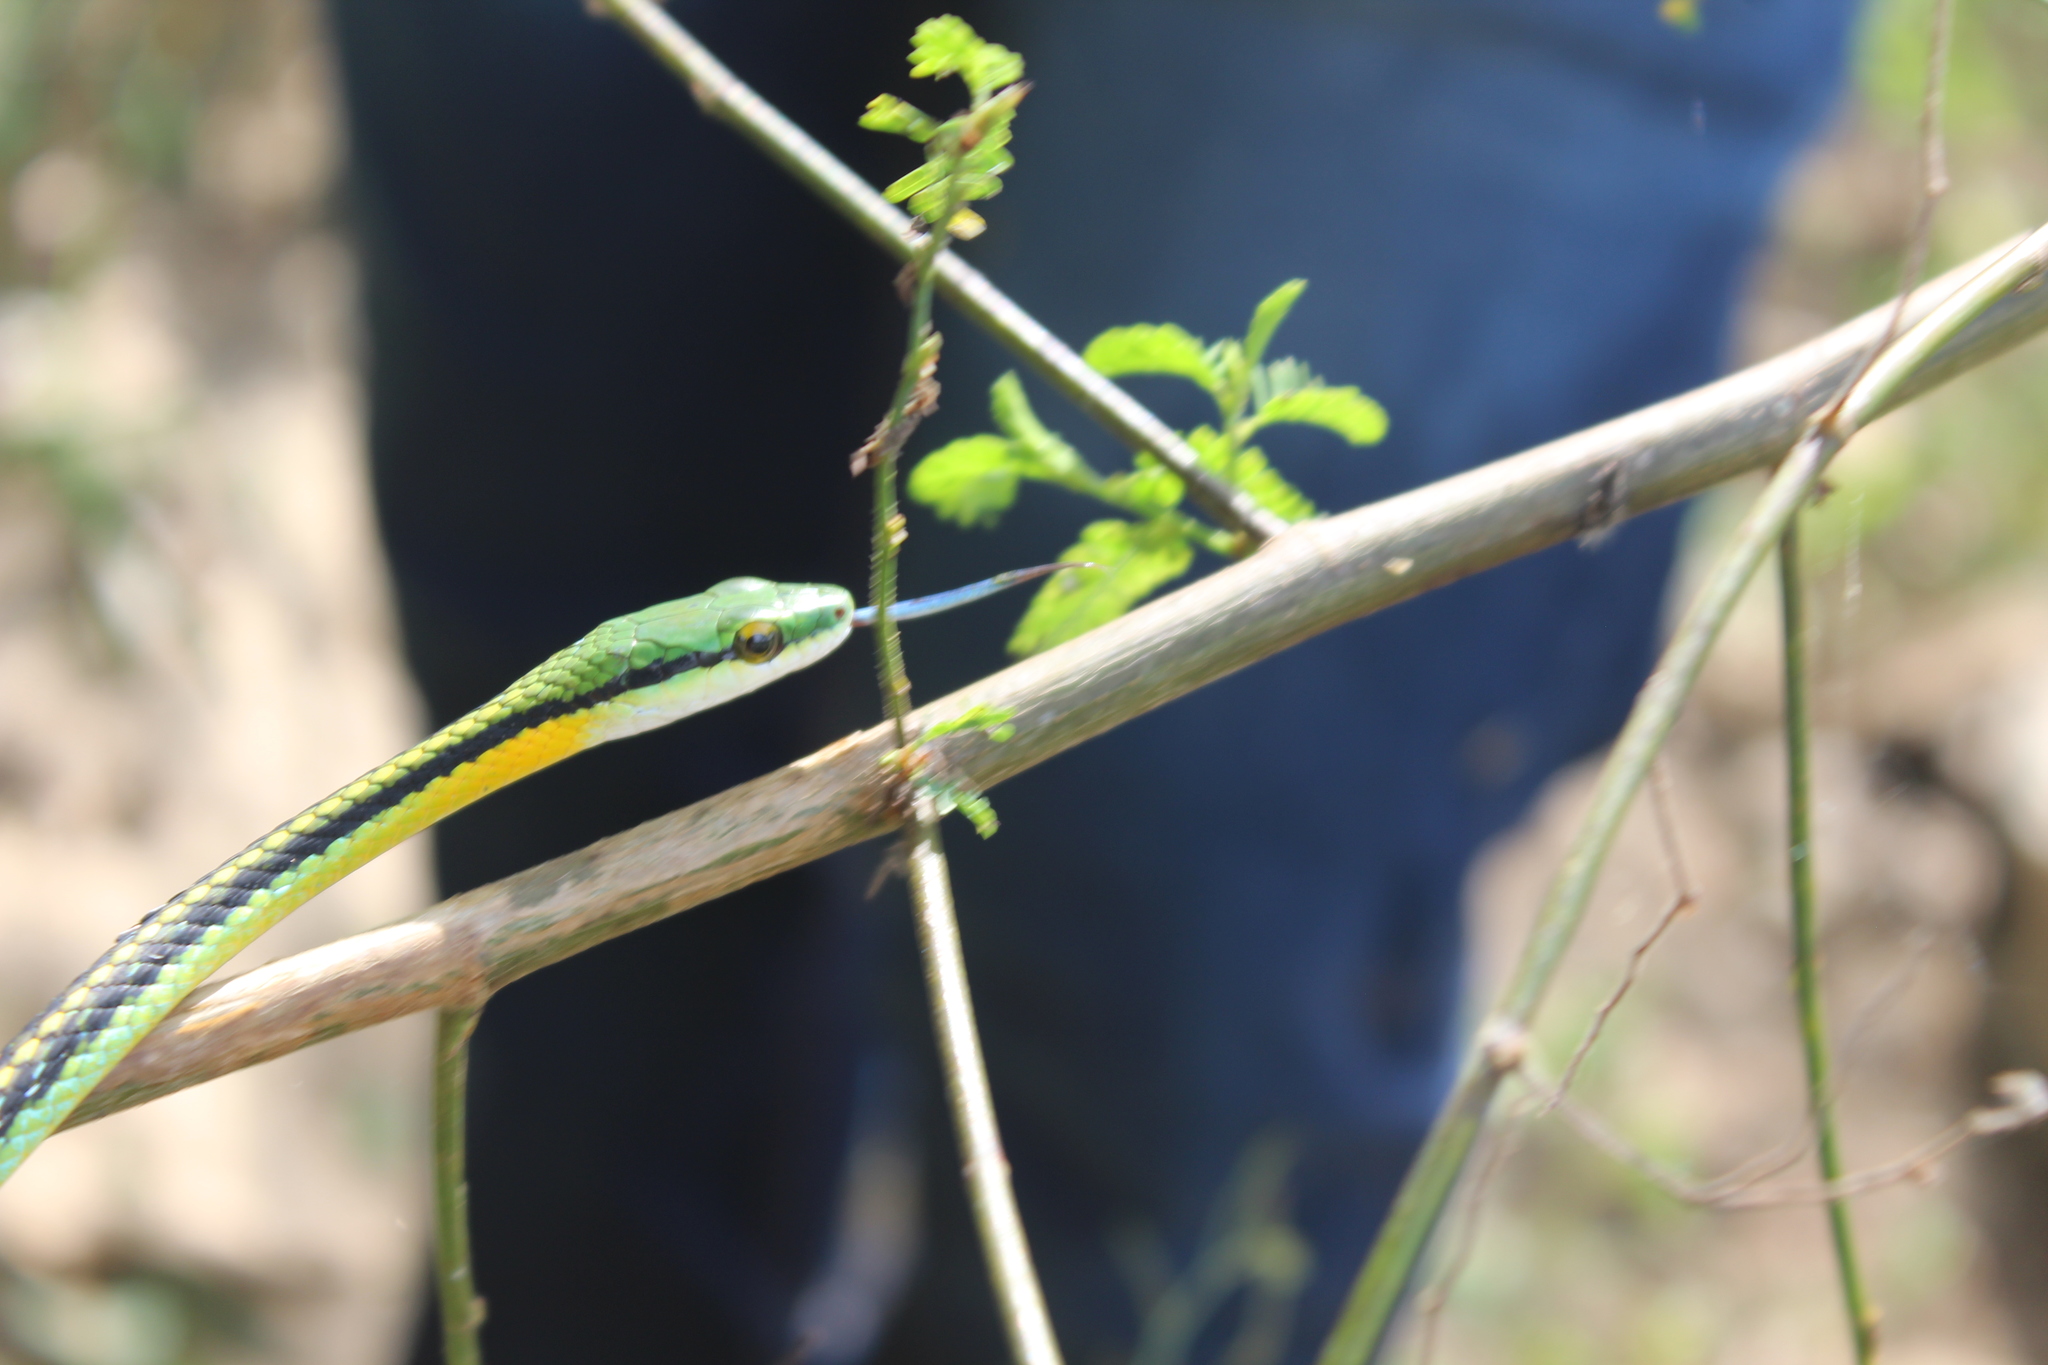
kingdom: Animalia
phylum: Chordata
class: Squamata
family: Colubridae
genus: Leptophis
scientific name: Leptophis diplotropis
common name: Pacific coast parrot snake
